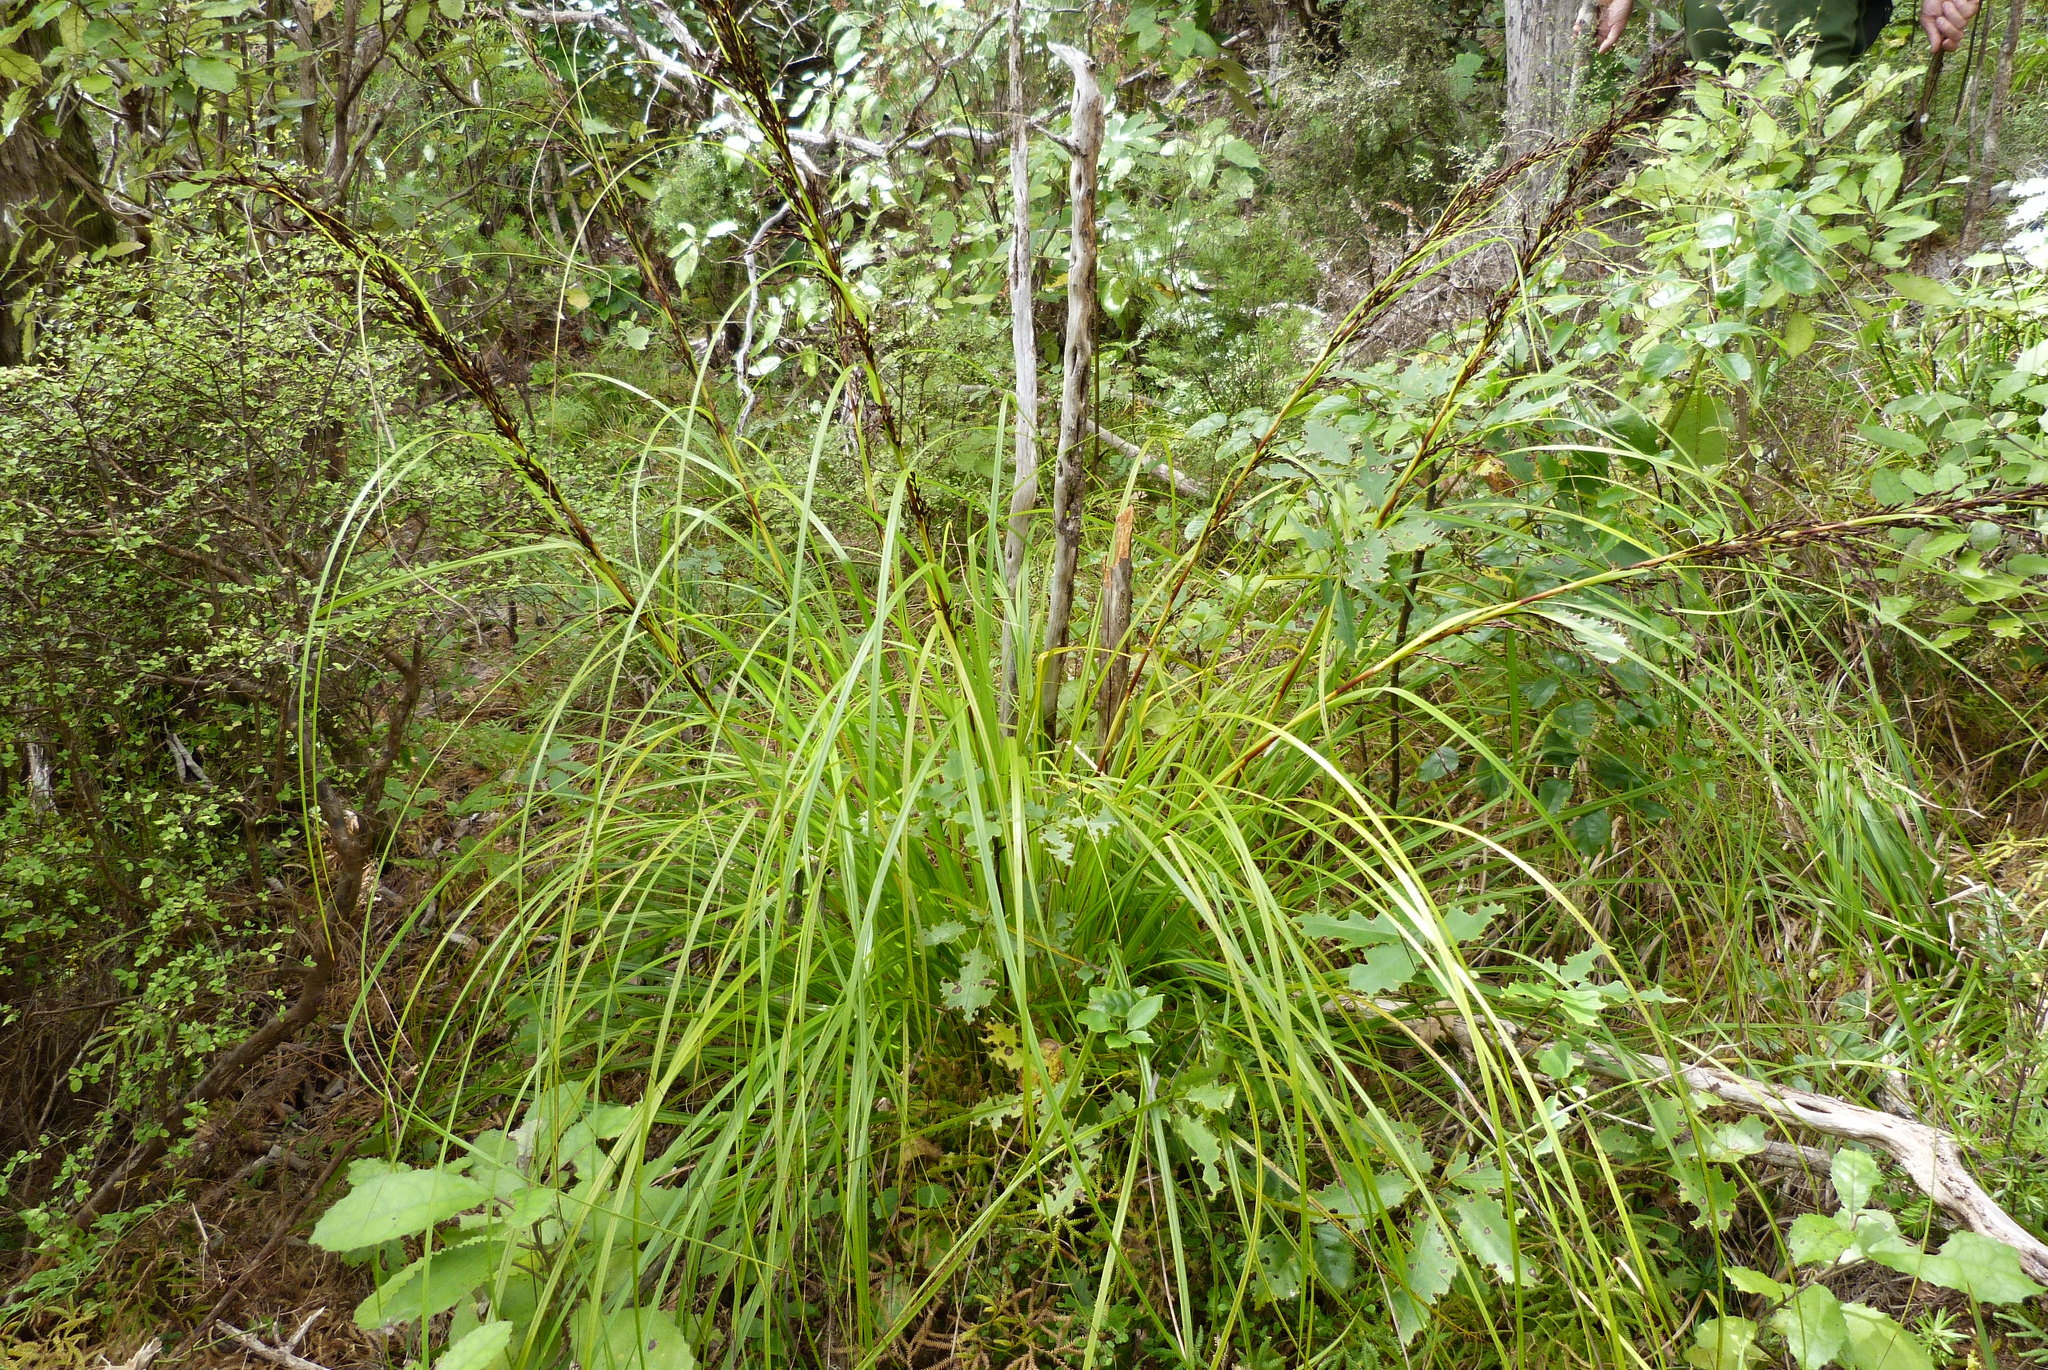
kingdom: Plantae
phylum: Tracheophyta
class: Liliopsida
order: Poales
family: Cyperaceae
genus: Gahnia
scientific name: Gahnia pauciflora
